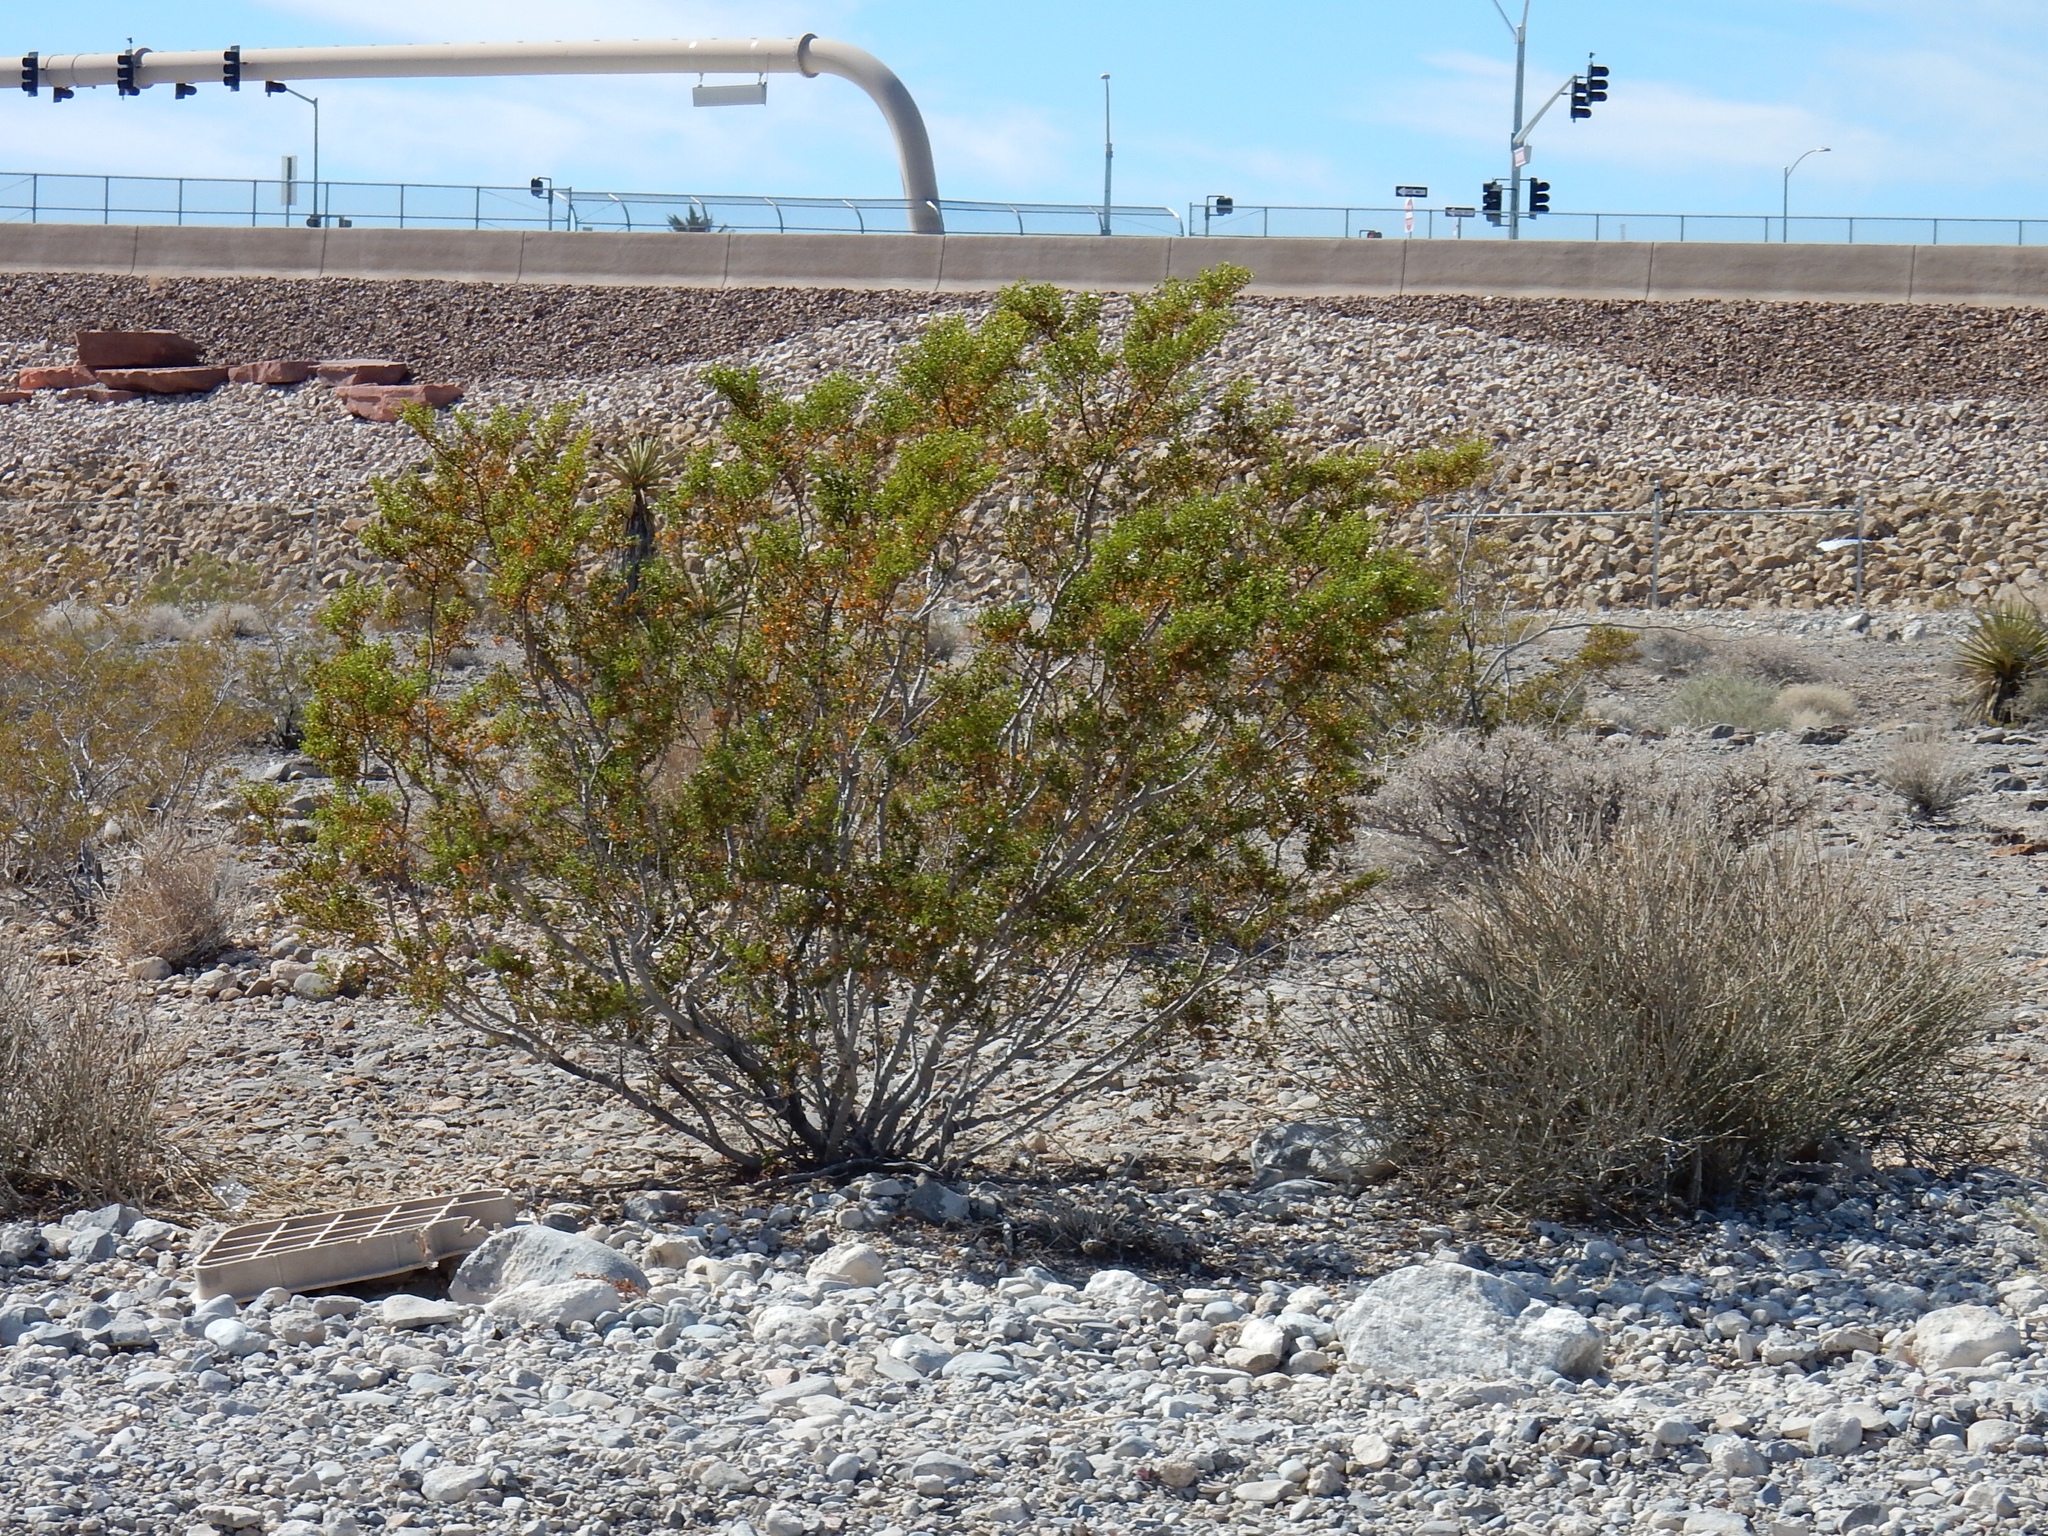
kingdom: Plantae
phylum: Tracheophyta
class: Magnoliopsida
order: Zygophyllales
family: Zygophyllaceae
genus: Larrea
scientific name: Larrea tridentata
